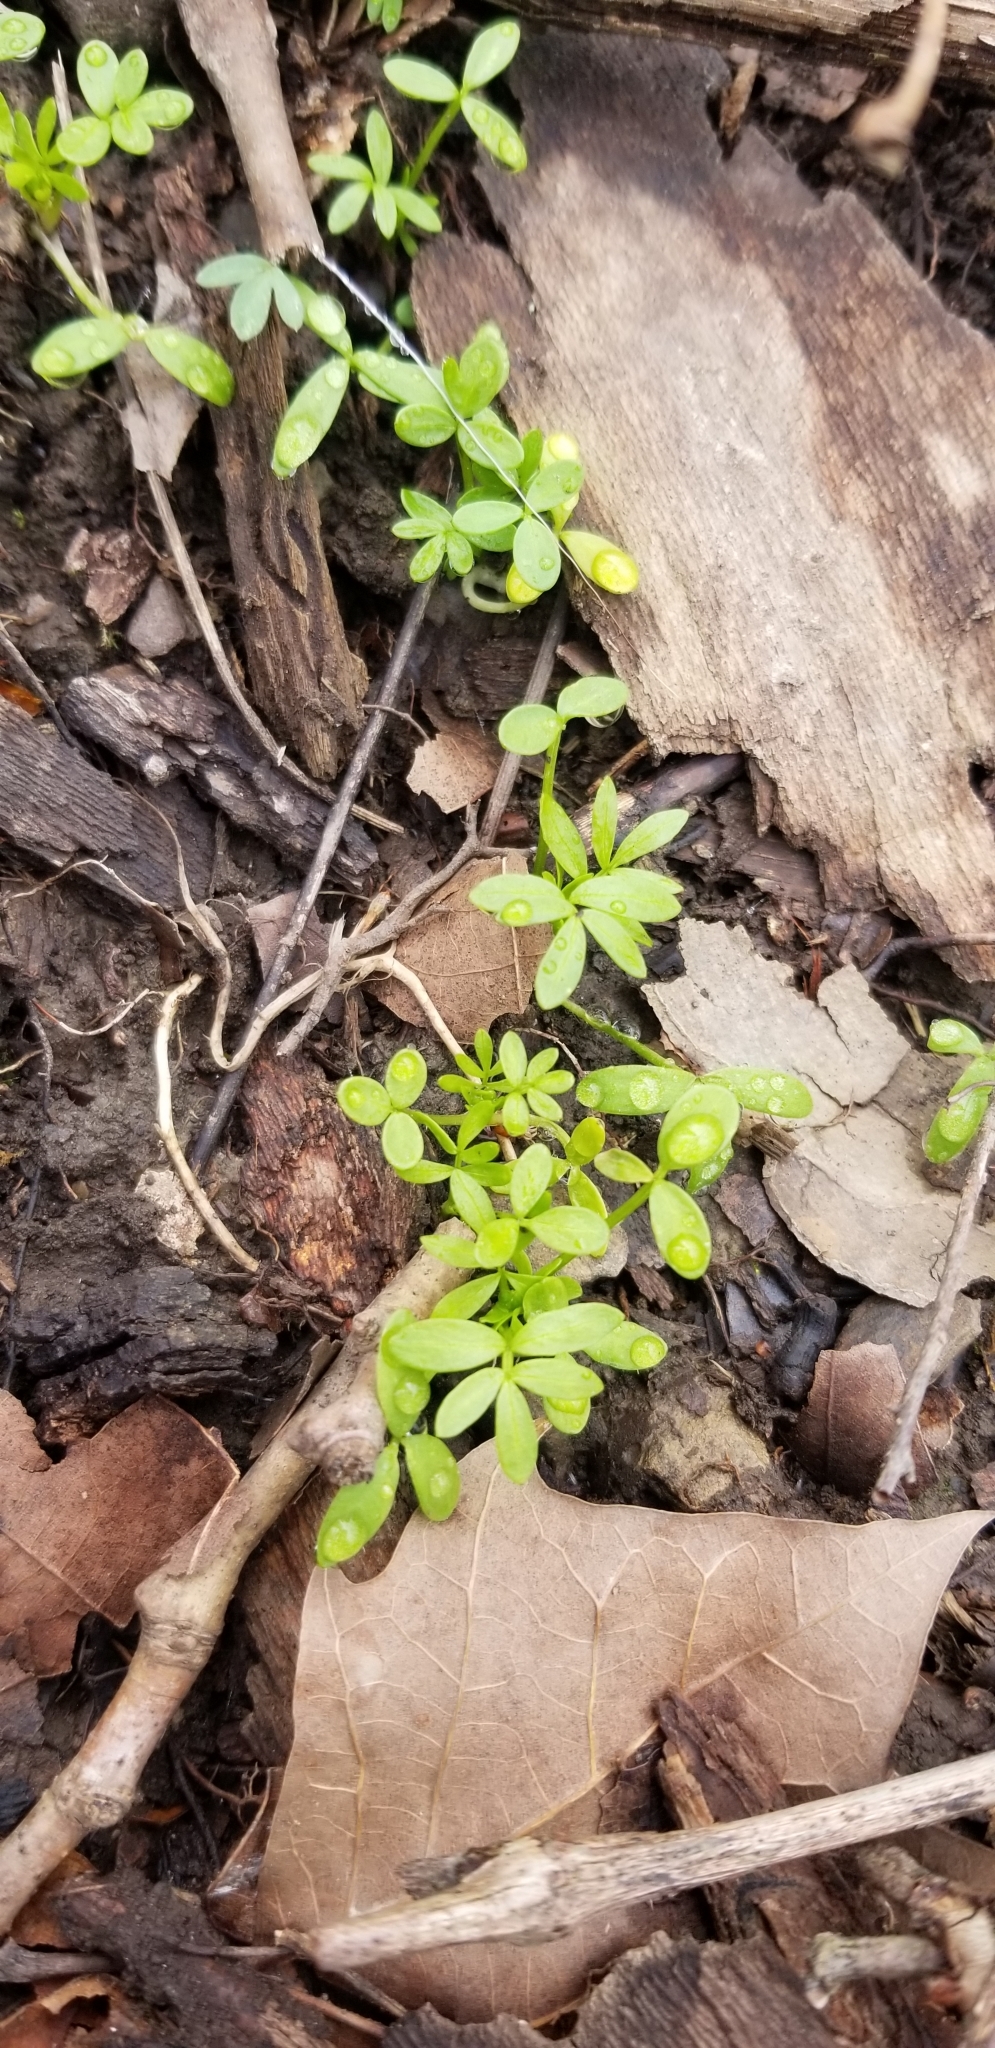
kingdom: Plantae
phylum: Tracheophyta
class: Magnoliopsida
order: Brassicales
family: Limnanthaceae
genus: Floerkea
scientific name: Floerkea proserpinacoides
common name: False mermaid
